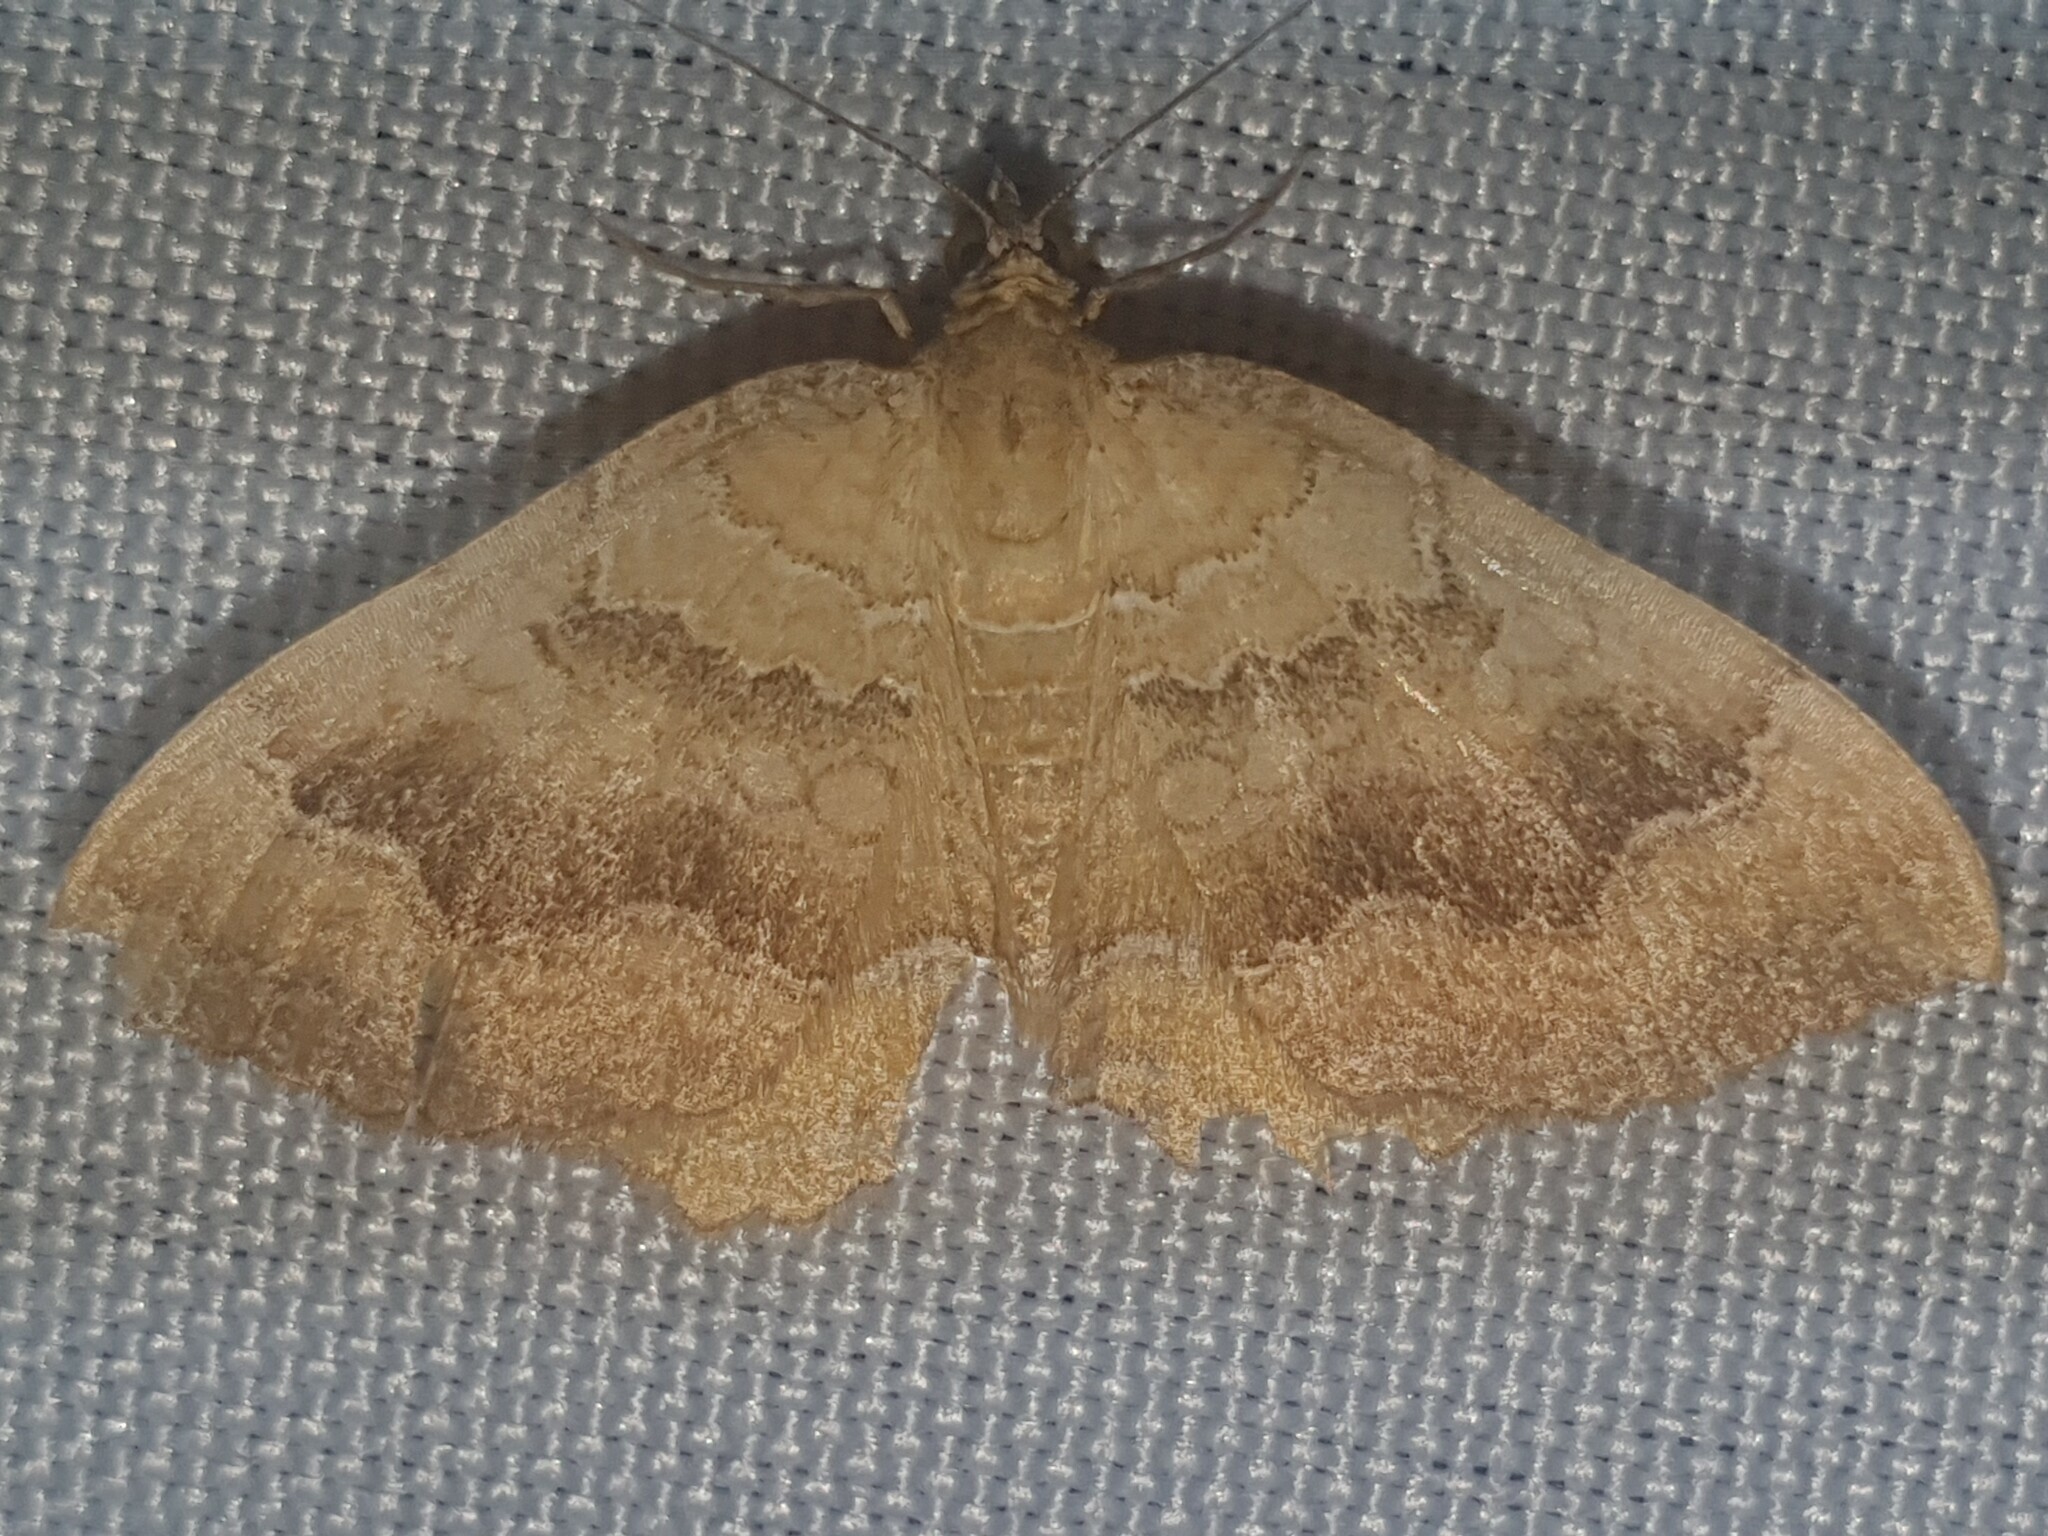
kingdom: Animalia
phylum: Arthropoda
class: Insecta
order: Lepidoptera
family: Geometridae
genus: Camptogramma
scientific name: Camptogramma bilineata
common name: Yellow shell
